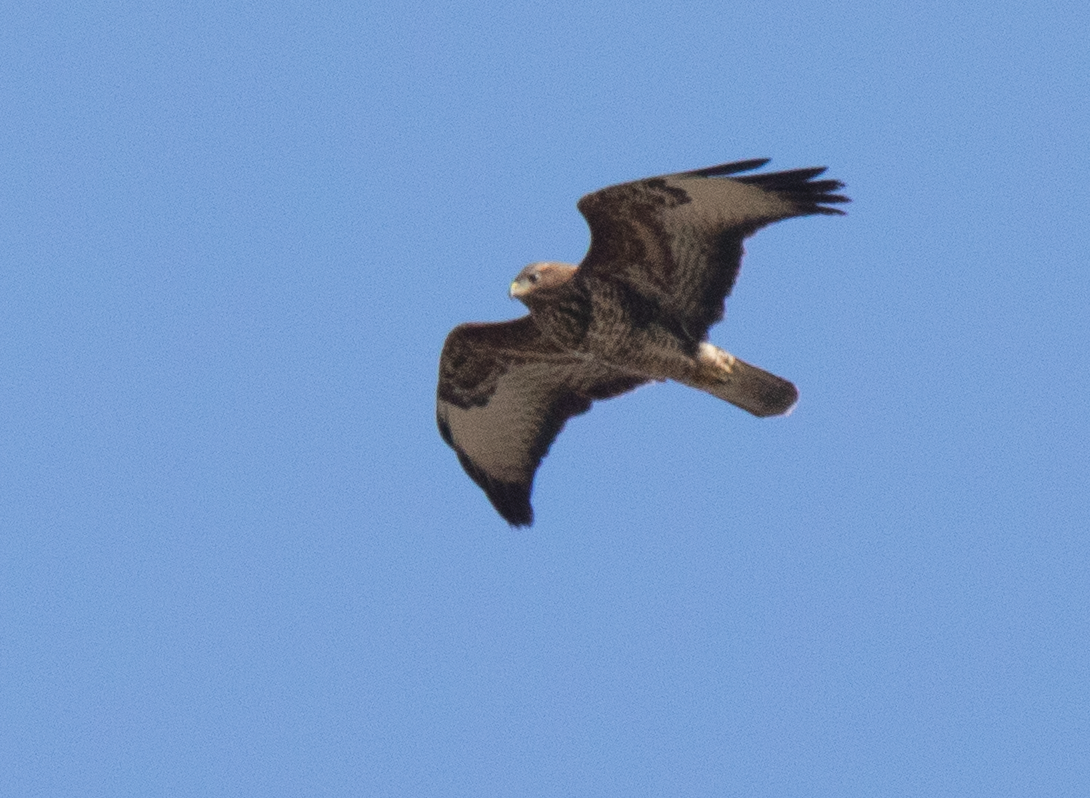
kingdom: Animalia
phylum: Chordata
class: Aves
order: Accipitriformes
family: Accipitridae
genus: Buteo
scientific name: Buteo buteo
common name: Common buzzard
